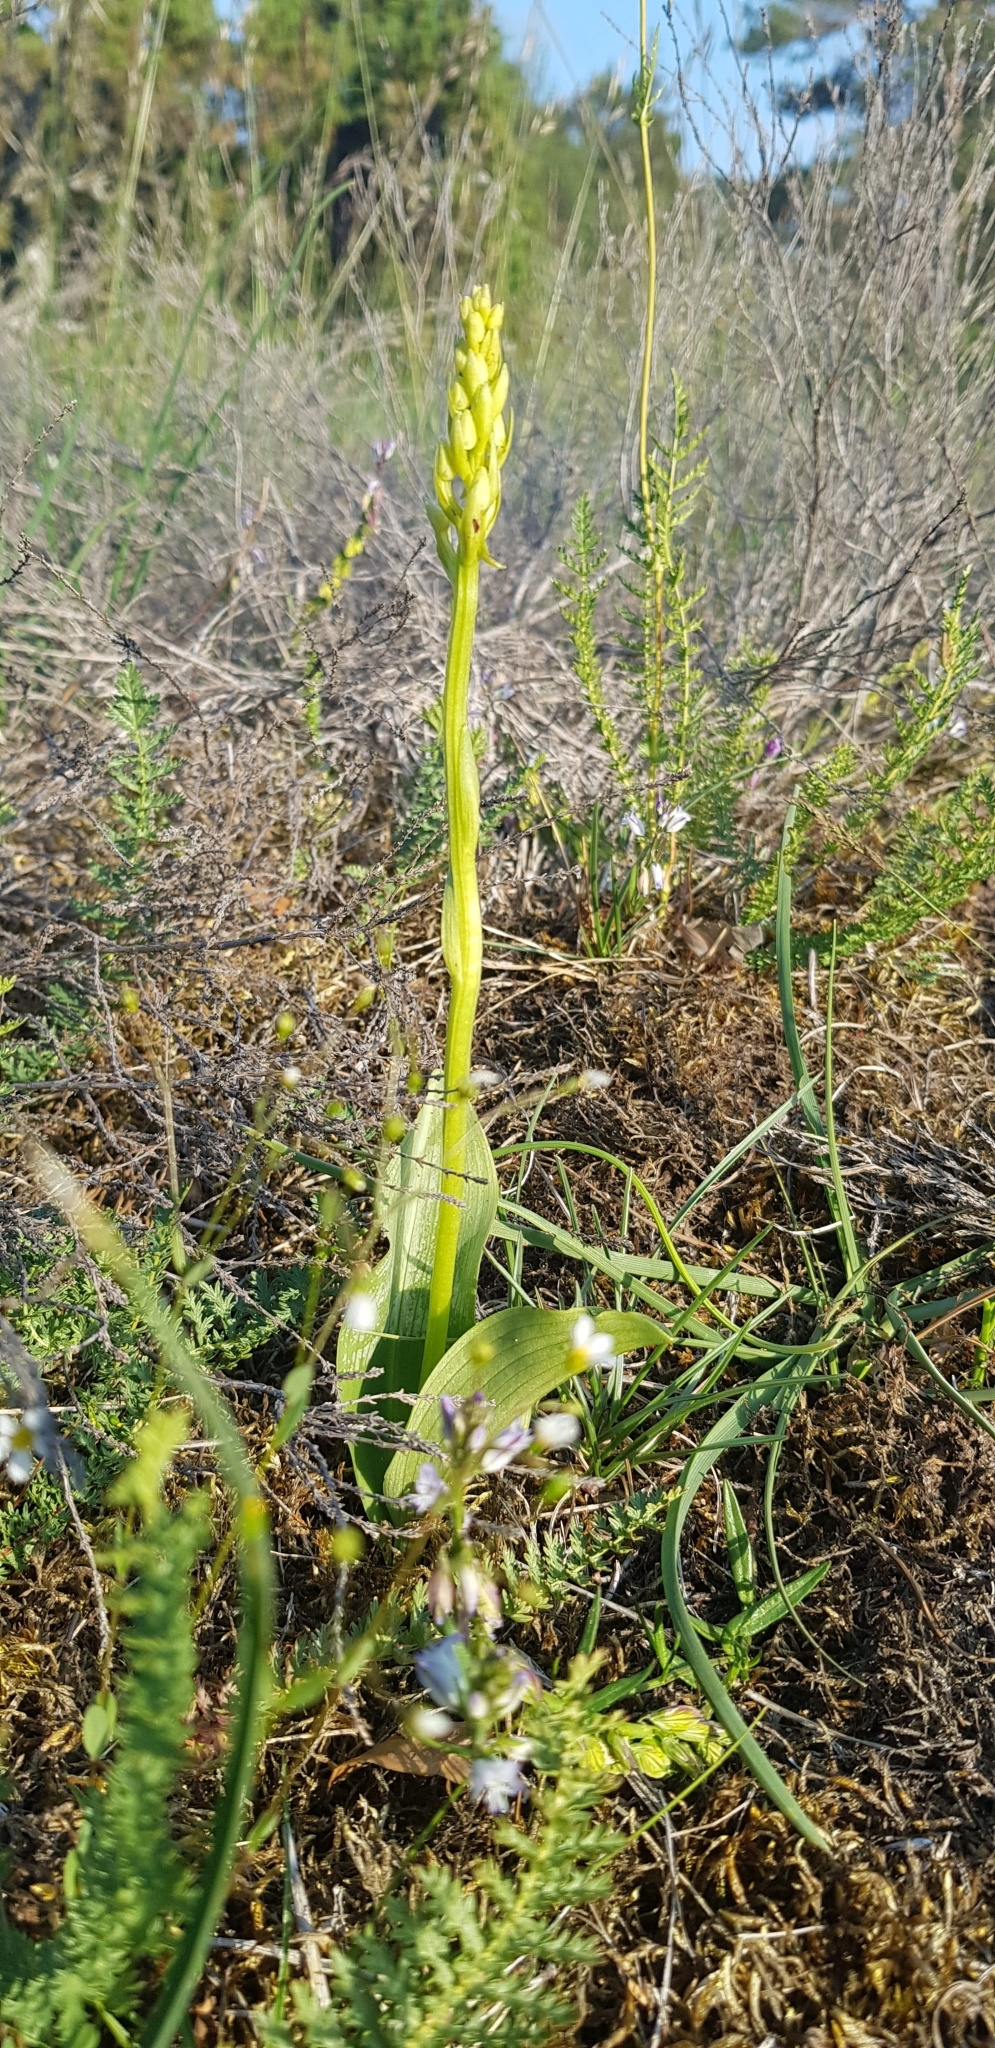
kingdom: Plantae
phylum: Tracheophyta
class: Liliopsida
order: Asparagales
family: Orchidaceae
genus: Platanthera
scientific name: Platanthera chlorantha
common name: Greater butterfly-orchid
